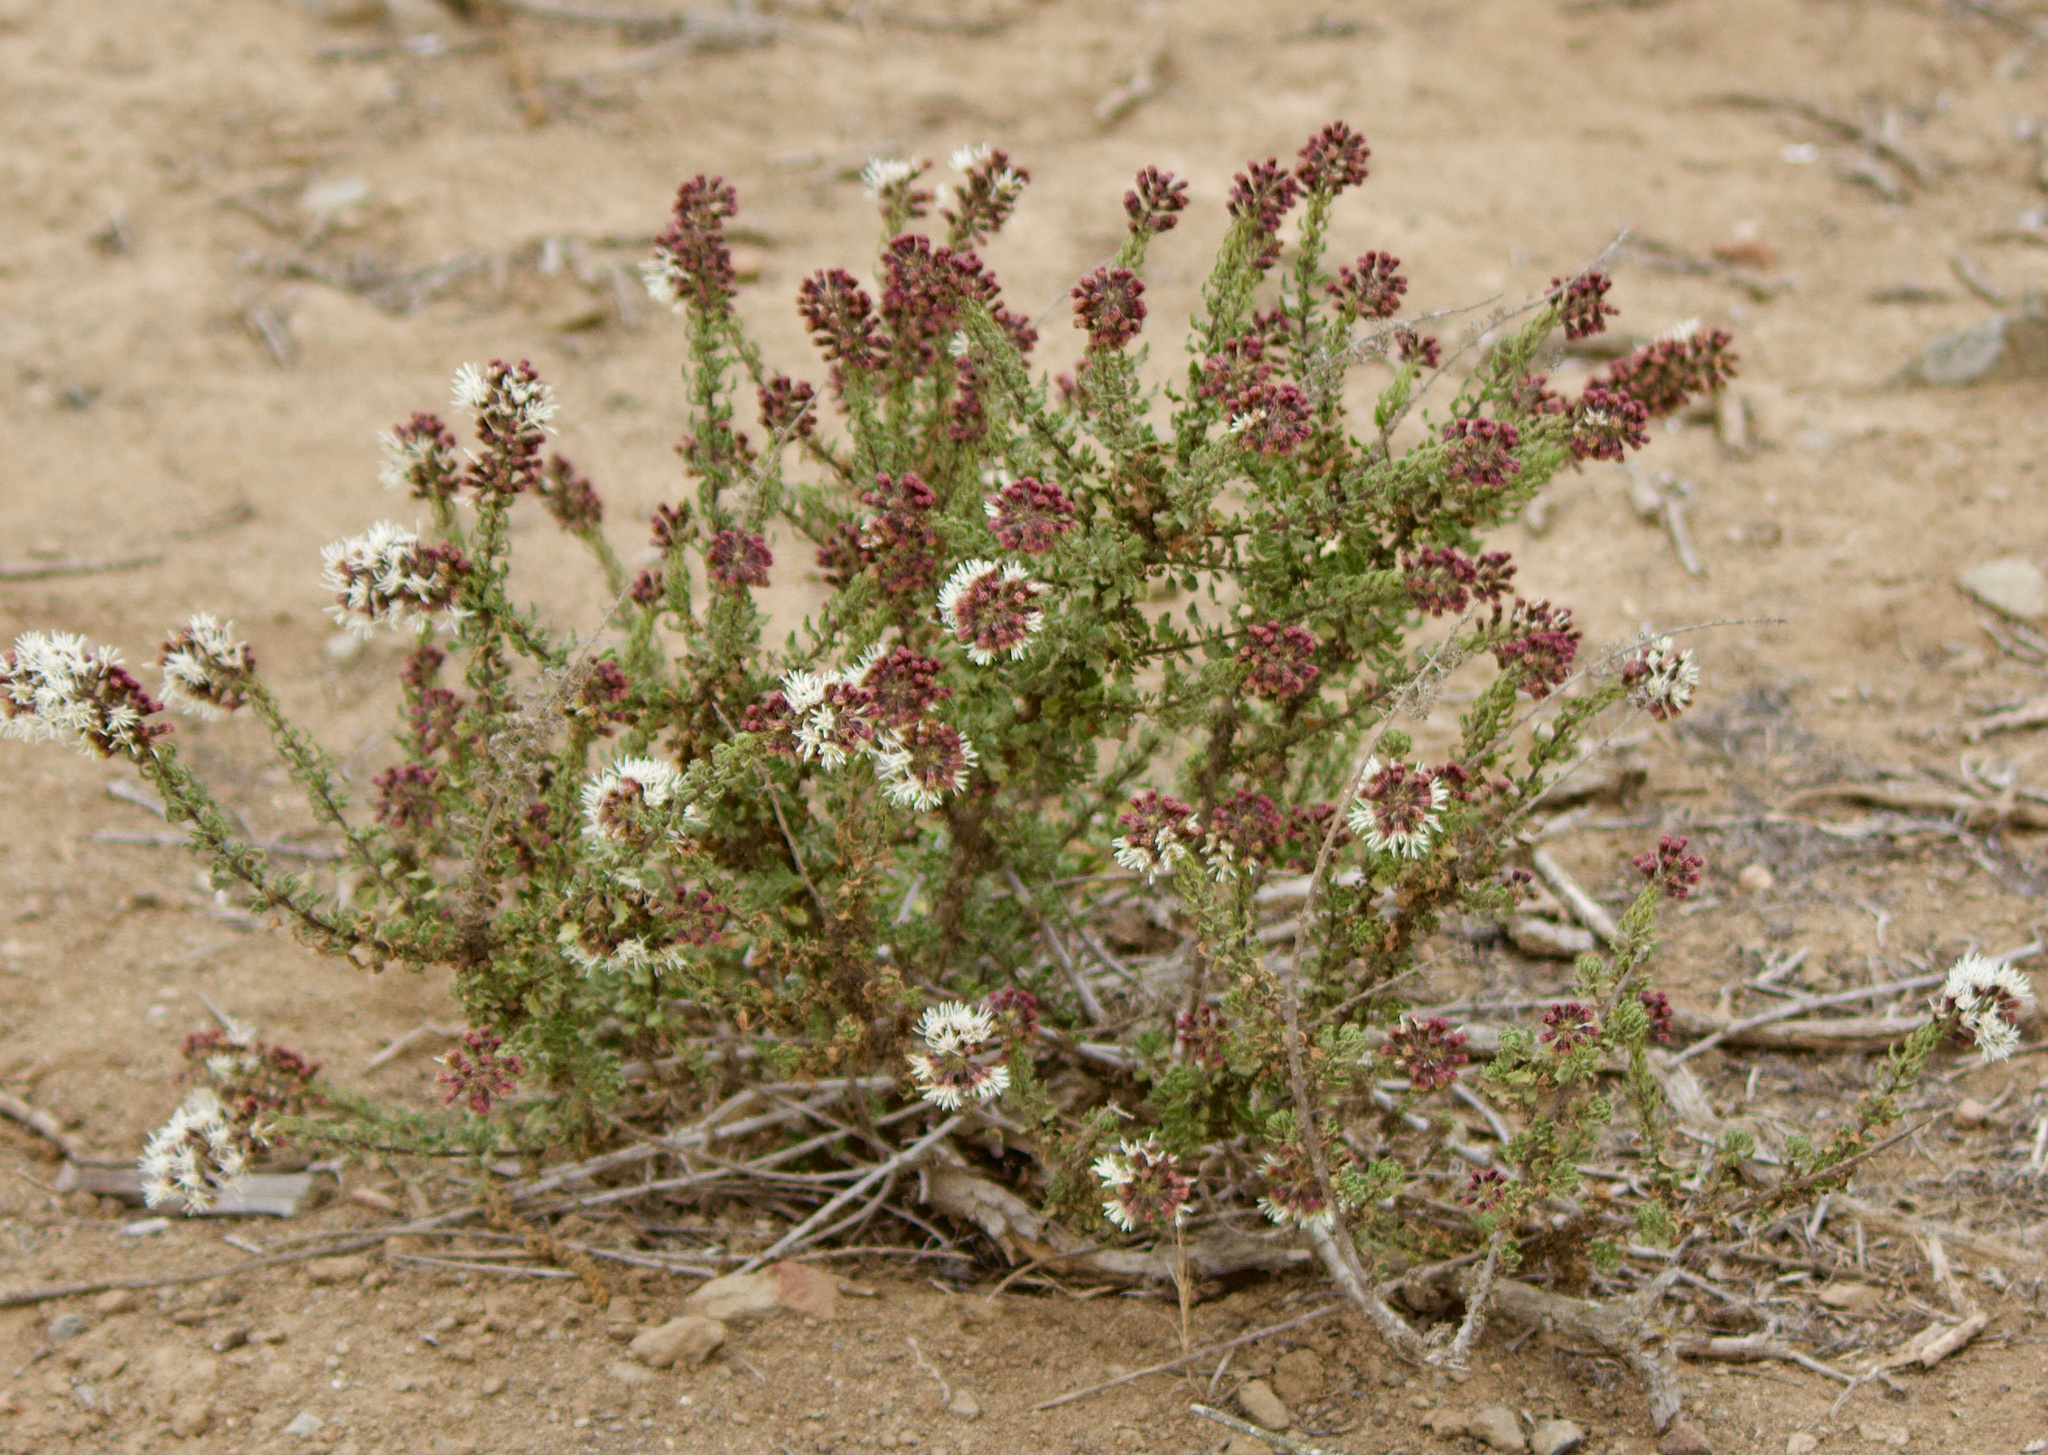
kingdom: Plantae
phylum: Tracheophyta
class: Magnoliopsida
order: Asterales
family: Asteraceae
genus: Ophryosporus
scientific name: Ophryosporus triangularis
